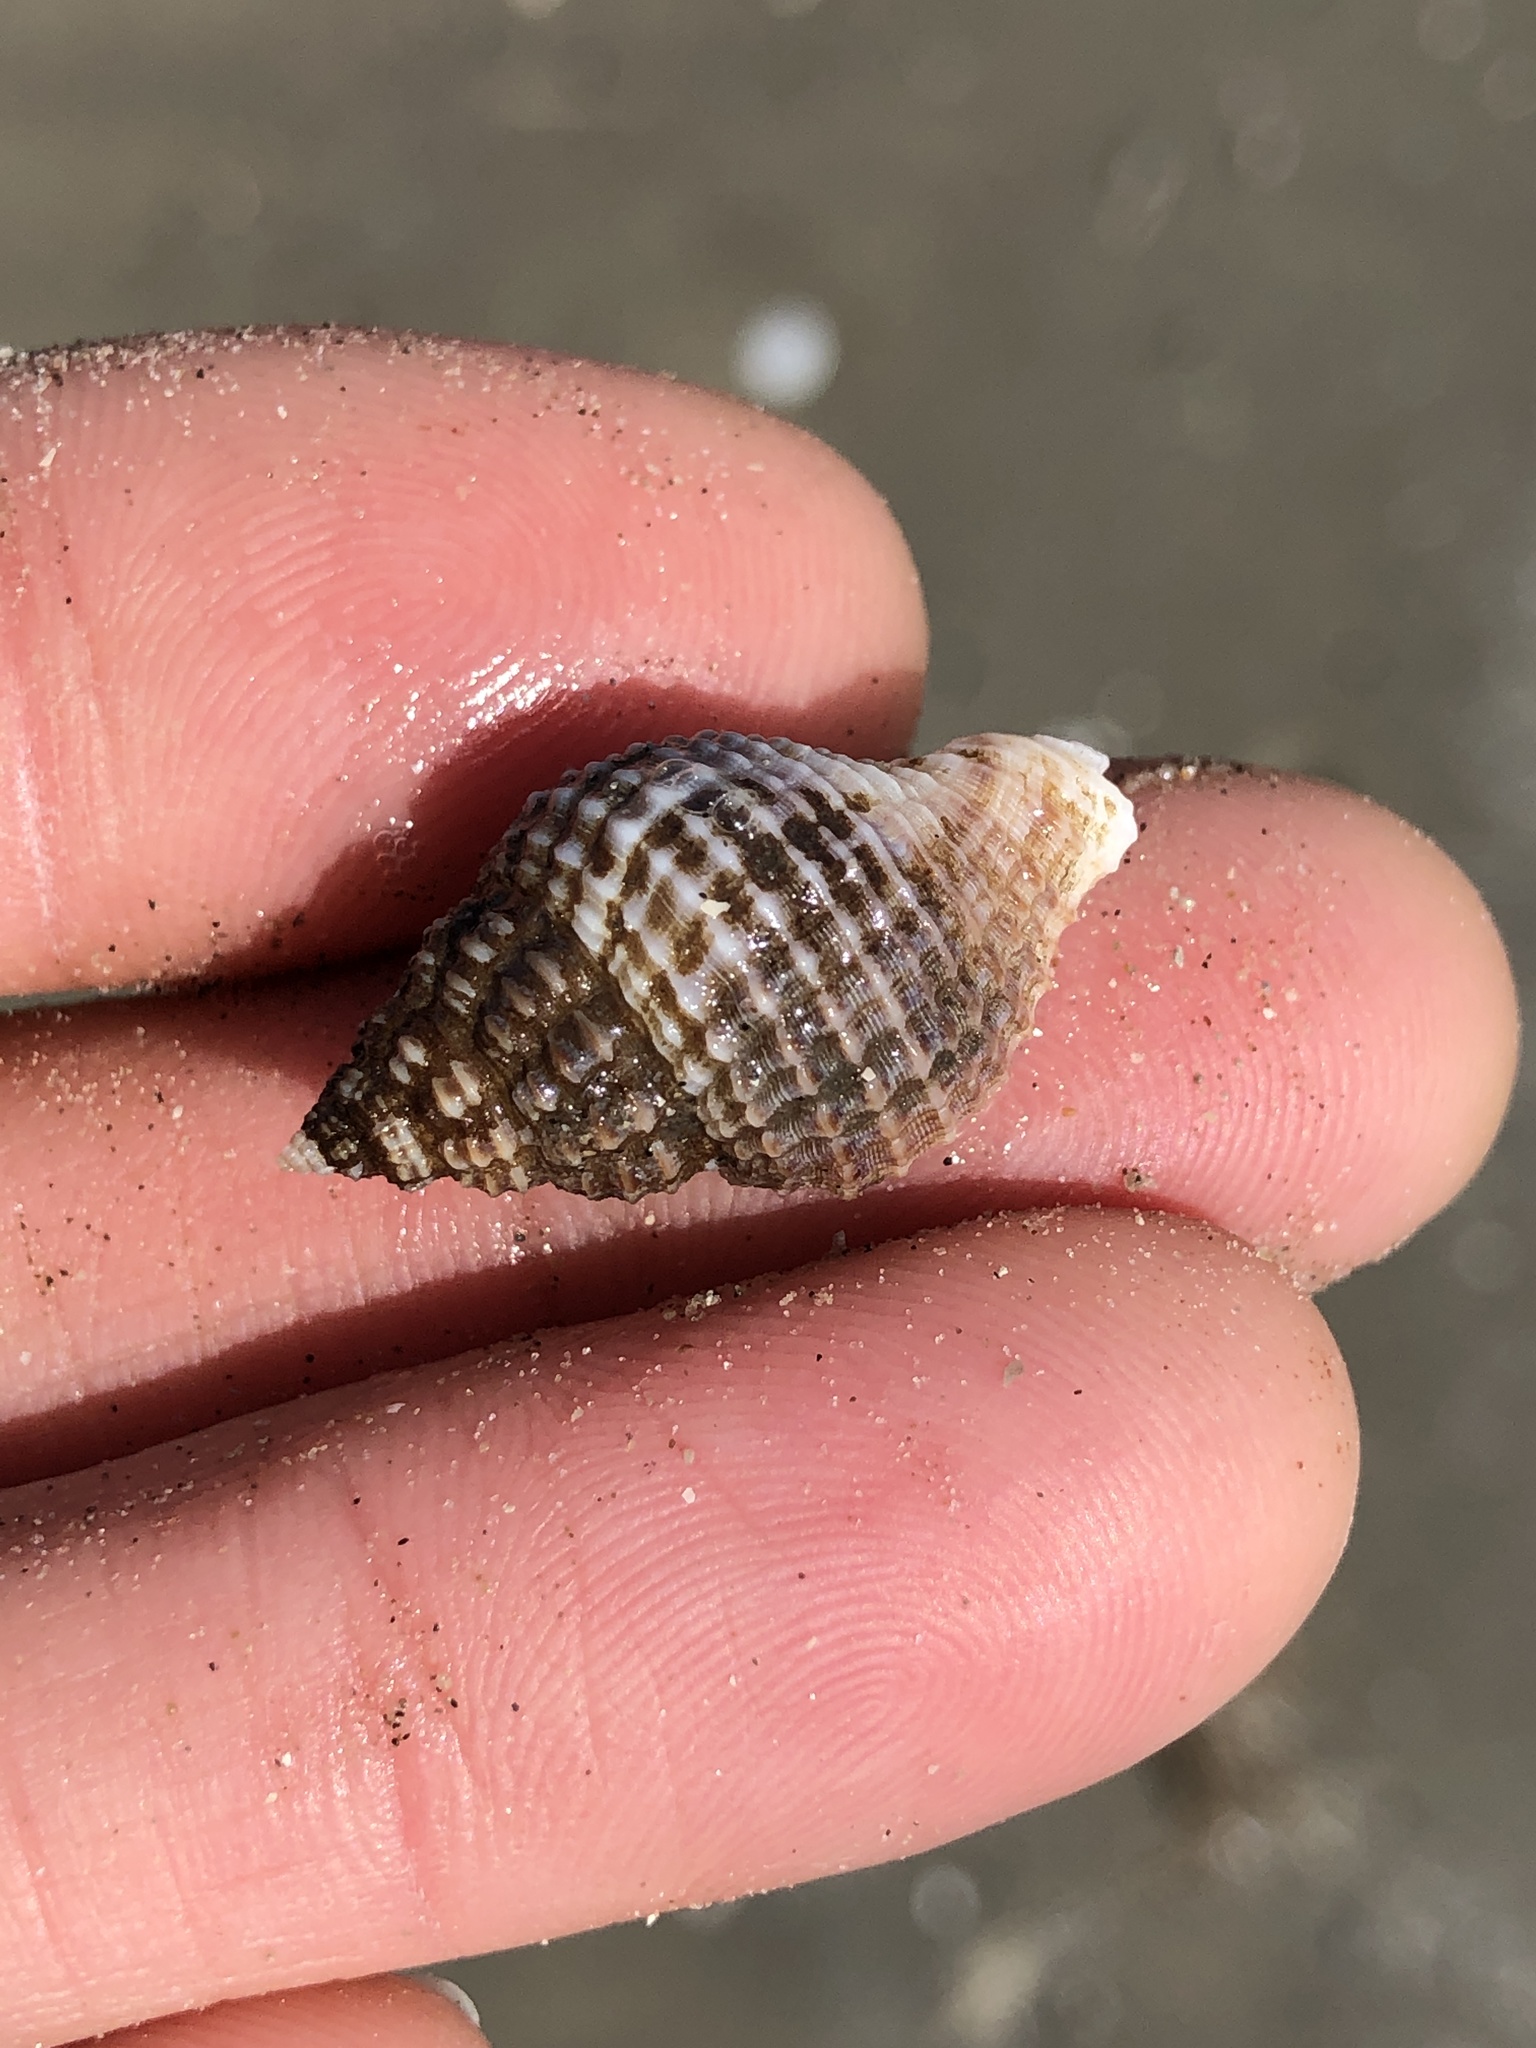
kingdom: Animalia
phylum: Mollusca
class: Gastropoda
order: Neogastropoda
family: Pisaniidae
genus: Solenosteira
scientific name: Solenosteira cancellaria
